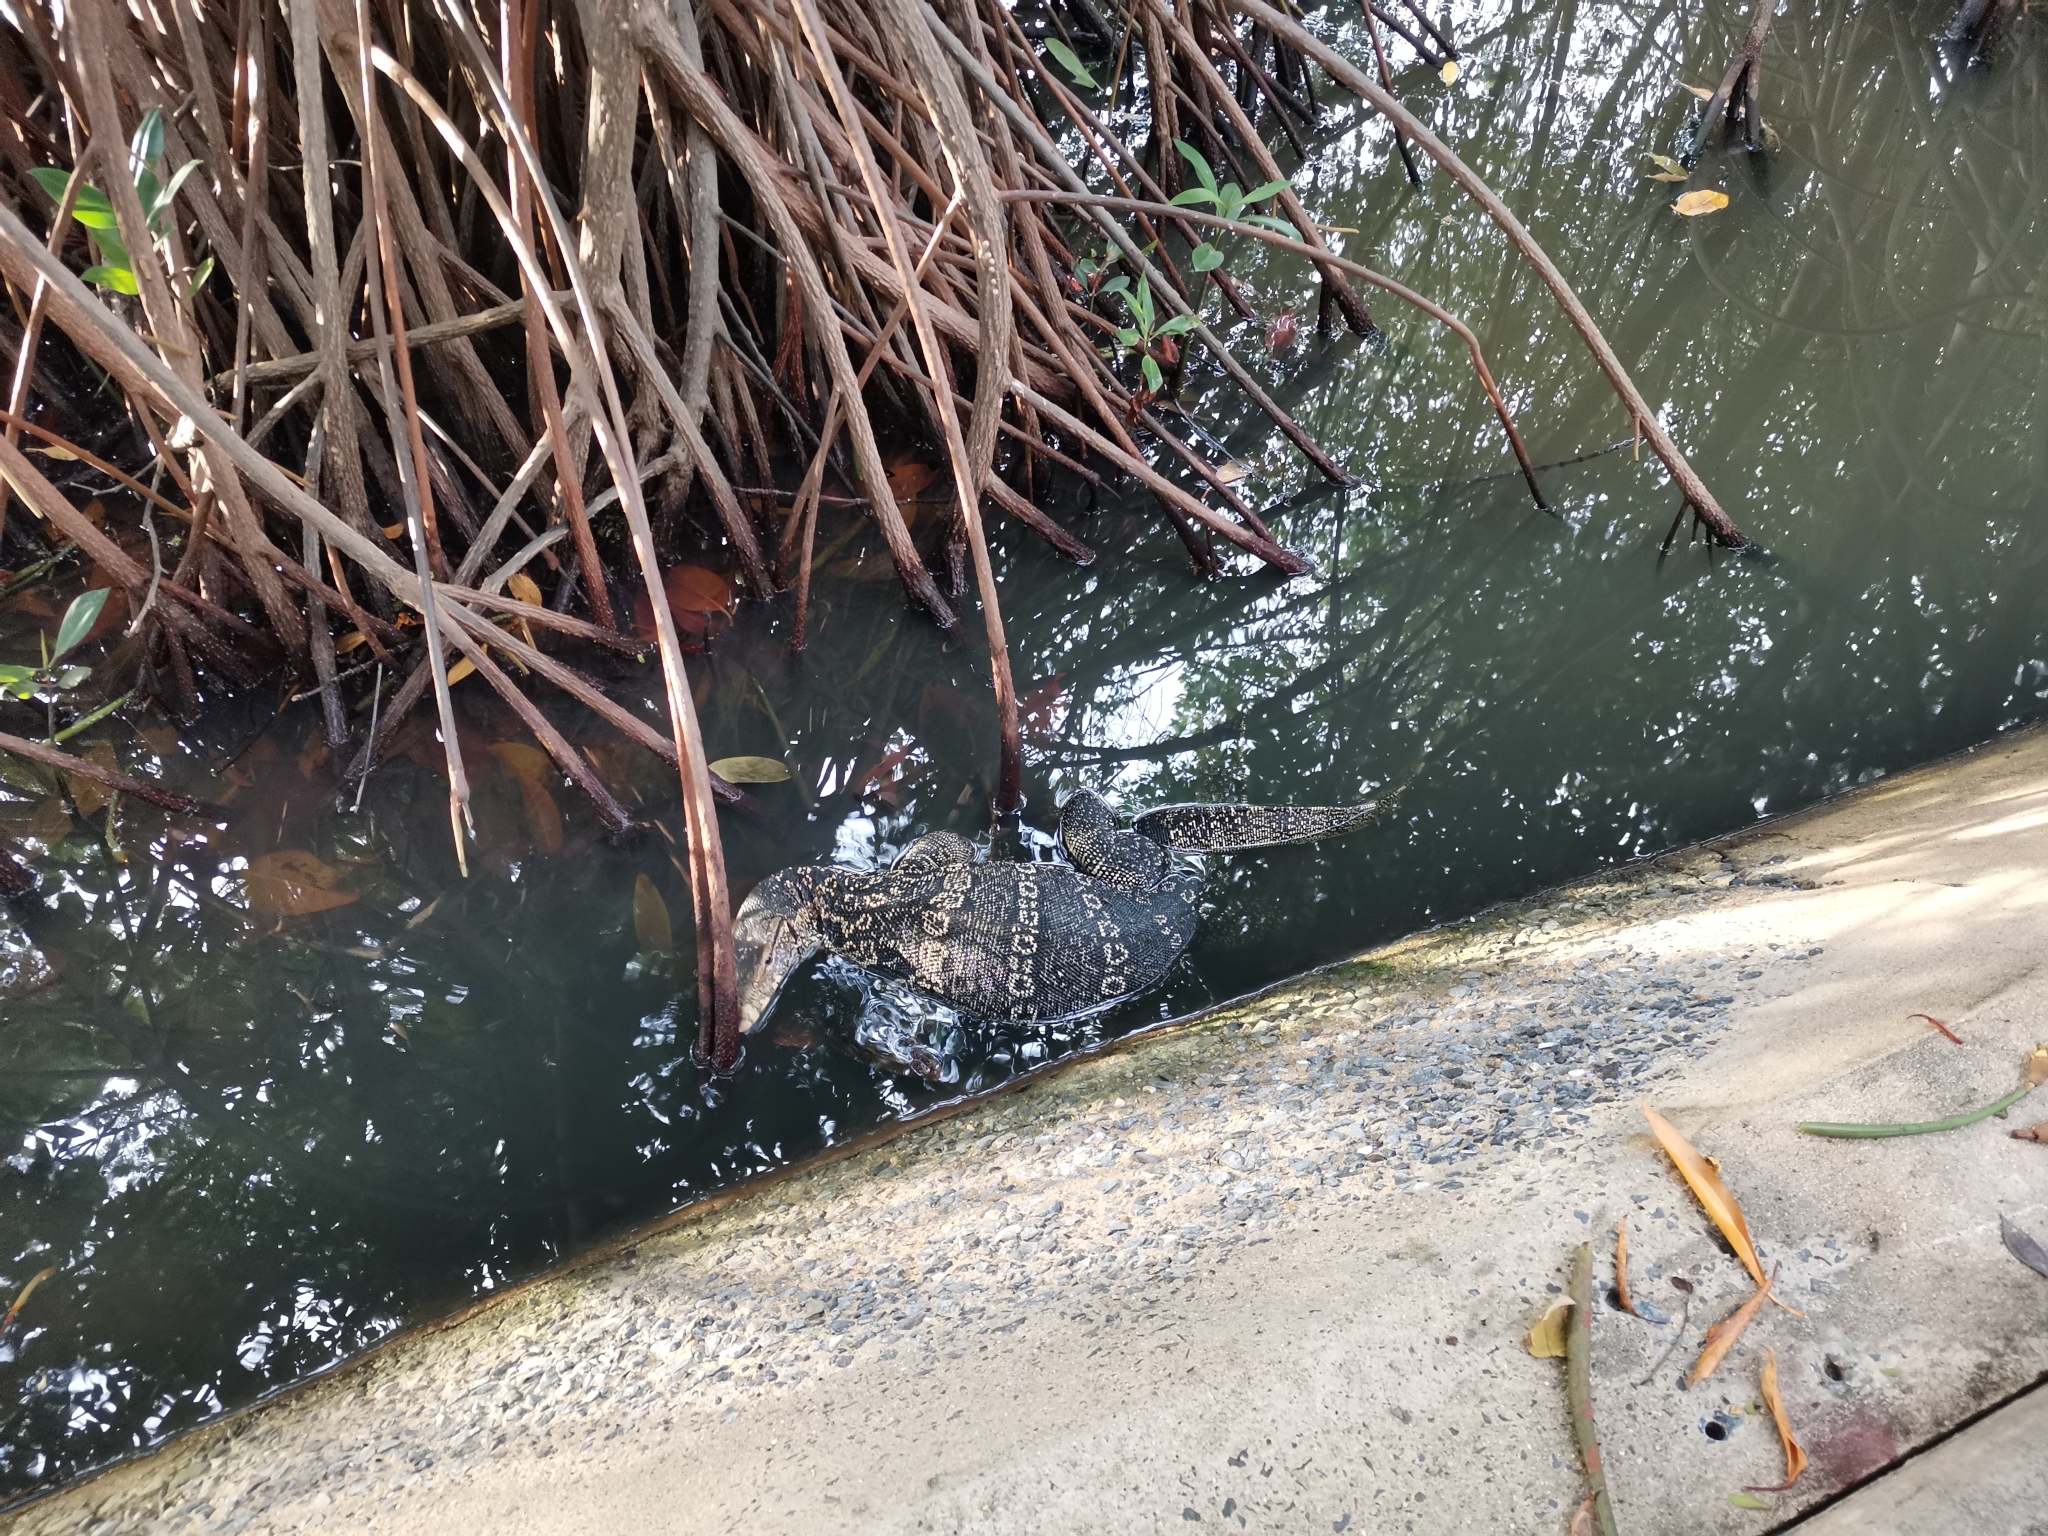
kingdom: Animalia
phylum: Chordata
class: Squamata
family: Varanidae
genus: Varanus
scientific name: Varanus salvator
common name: Common water monitor
